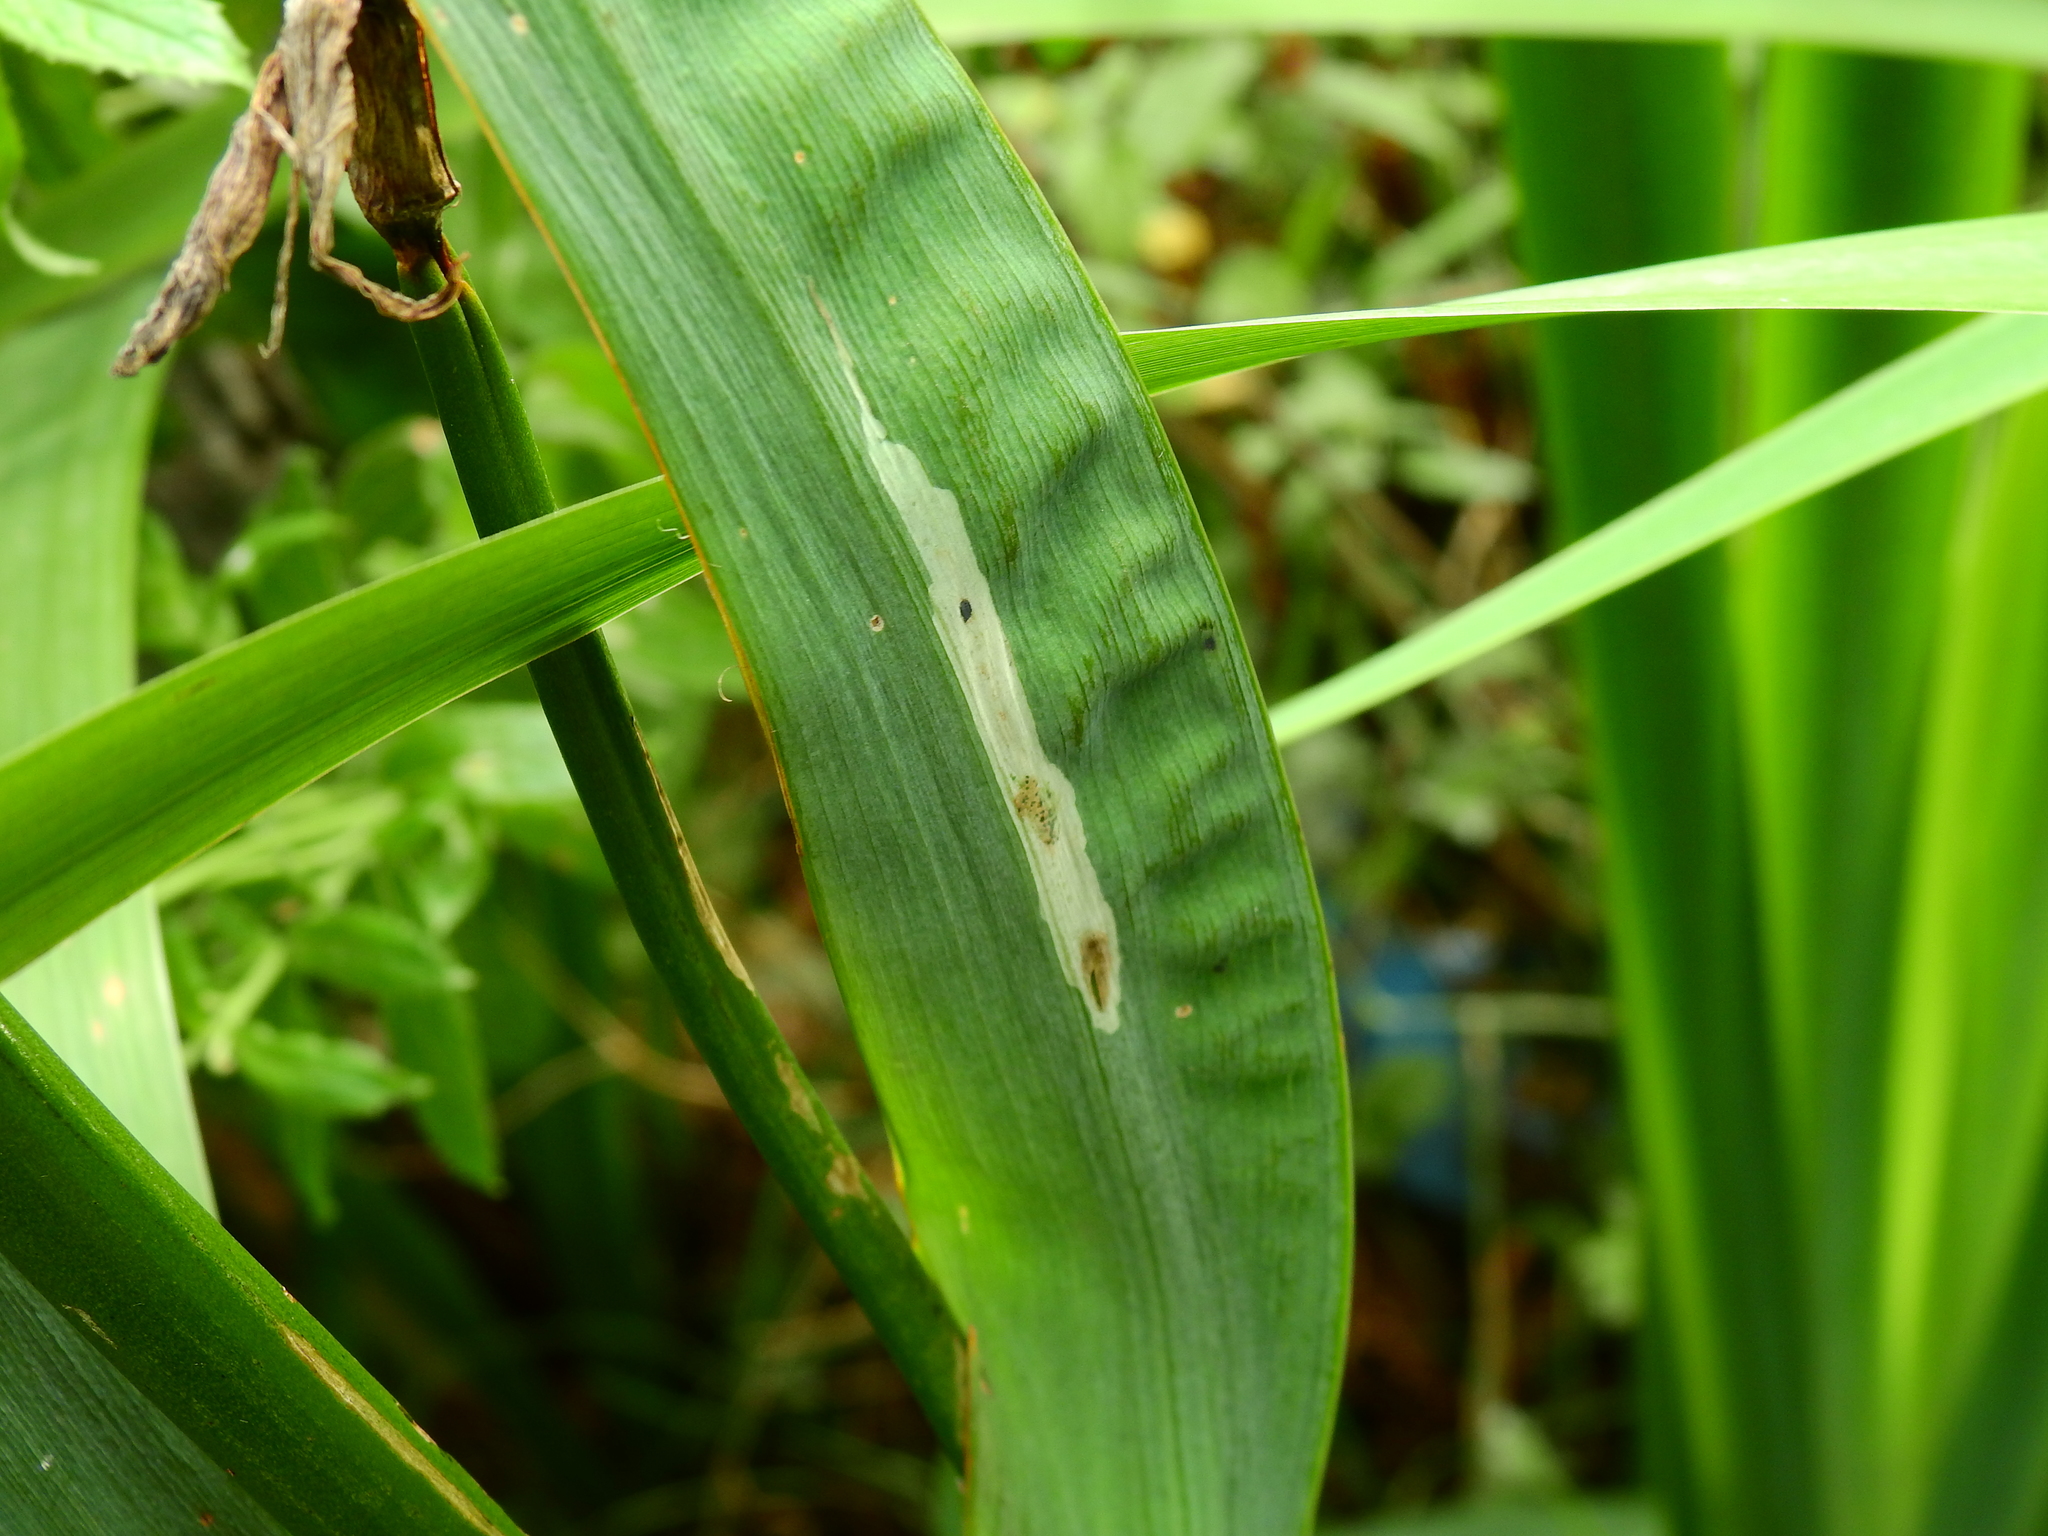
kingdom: Animalia
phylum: Arthropoda
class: Insecta
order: Diptera
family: Agromyzidae
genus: Cerodontha
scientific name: Cerodontha ircos
